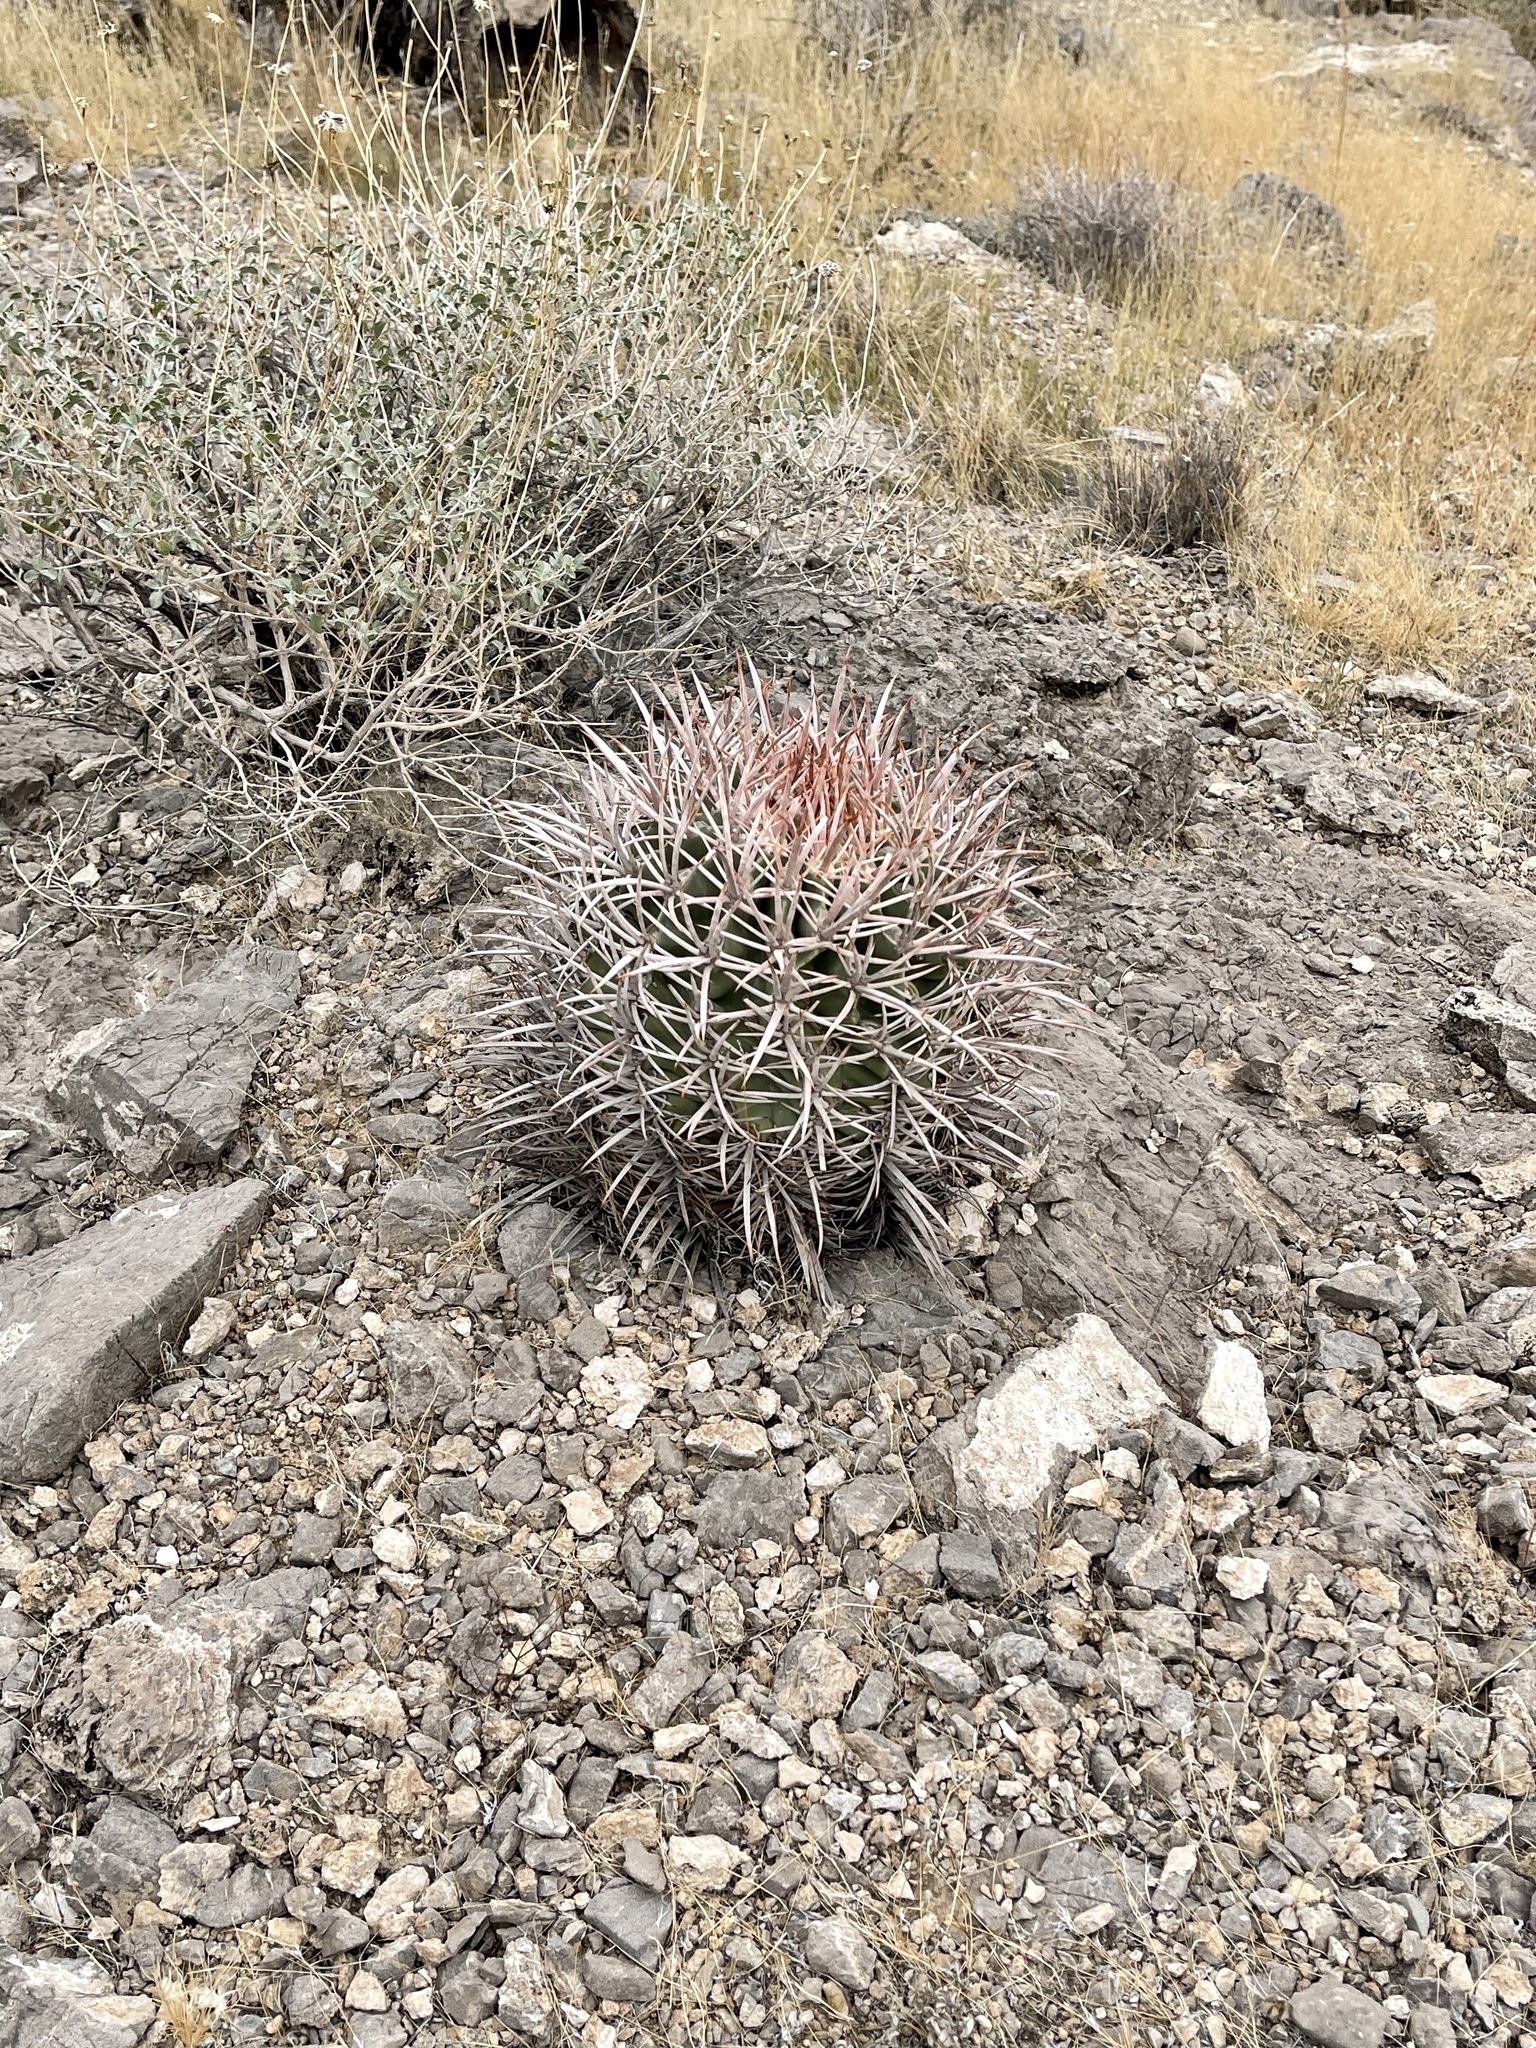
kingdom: Plantae
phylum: Tracheophyta
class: Magnoliopsida
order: Caryophyllales
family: Cactaceae
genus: Echinocactus
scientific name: Echinocactus polycephalus
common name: Cottontop cactus
